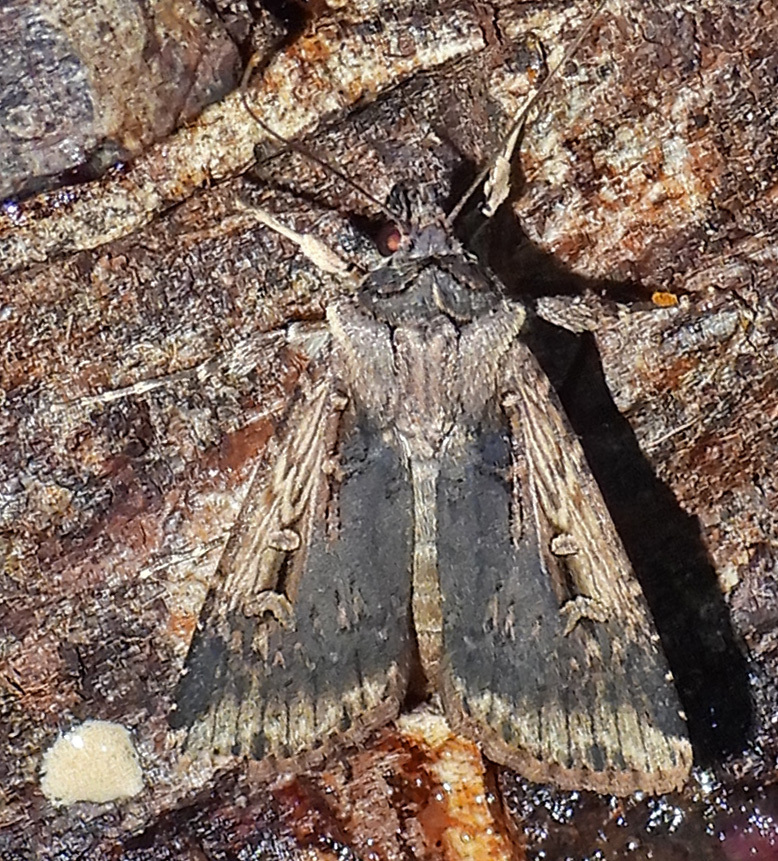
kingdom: Animalia
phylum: Arthropoda
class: Insecta
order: Lepidoptera
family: Noctuidae
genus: Feltia
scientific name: Feltia subterranea
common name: Granulate cutworm
